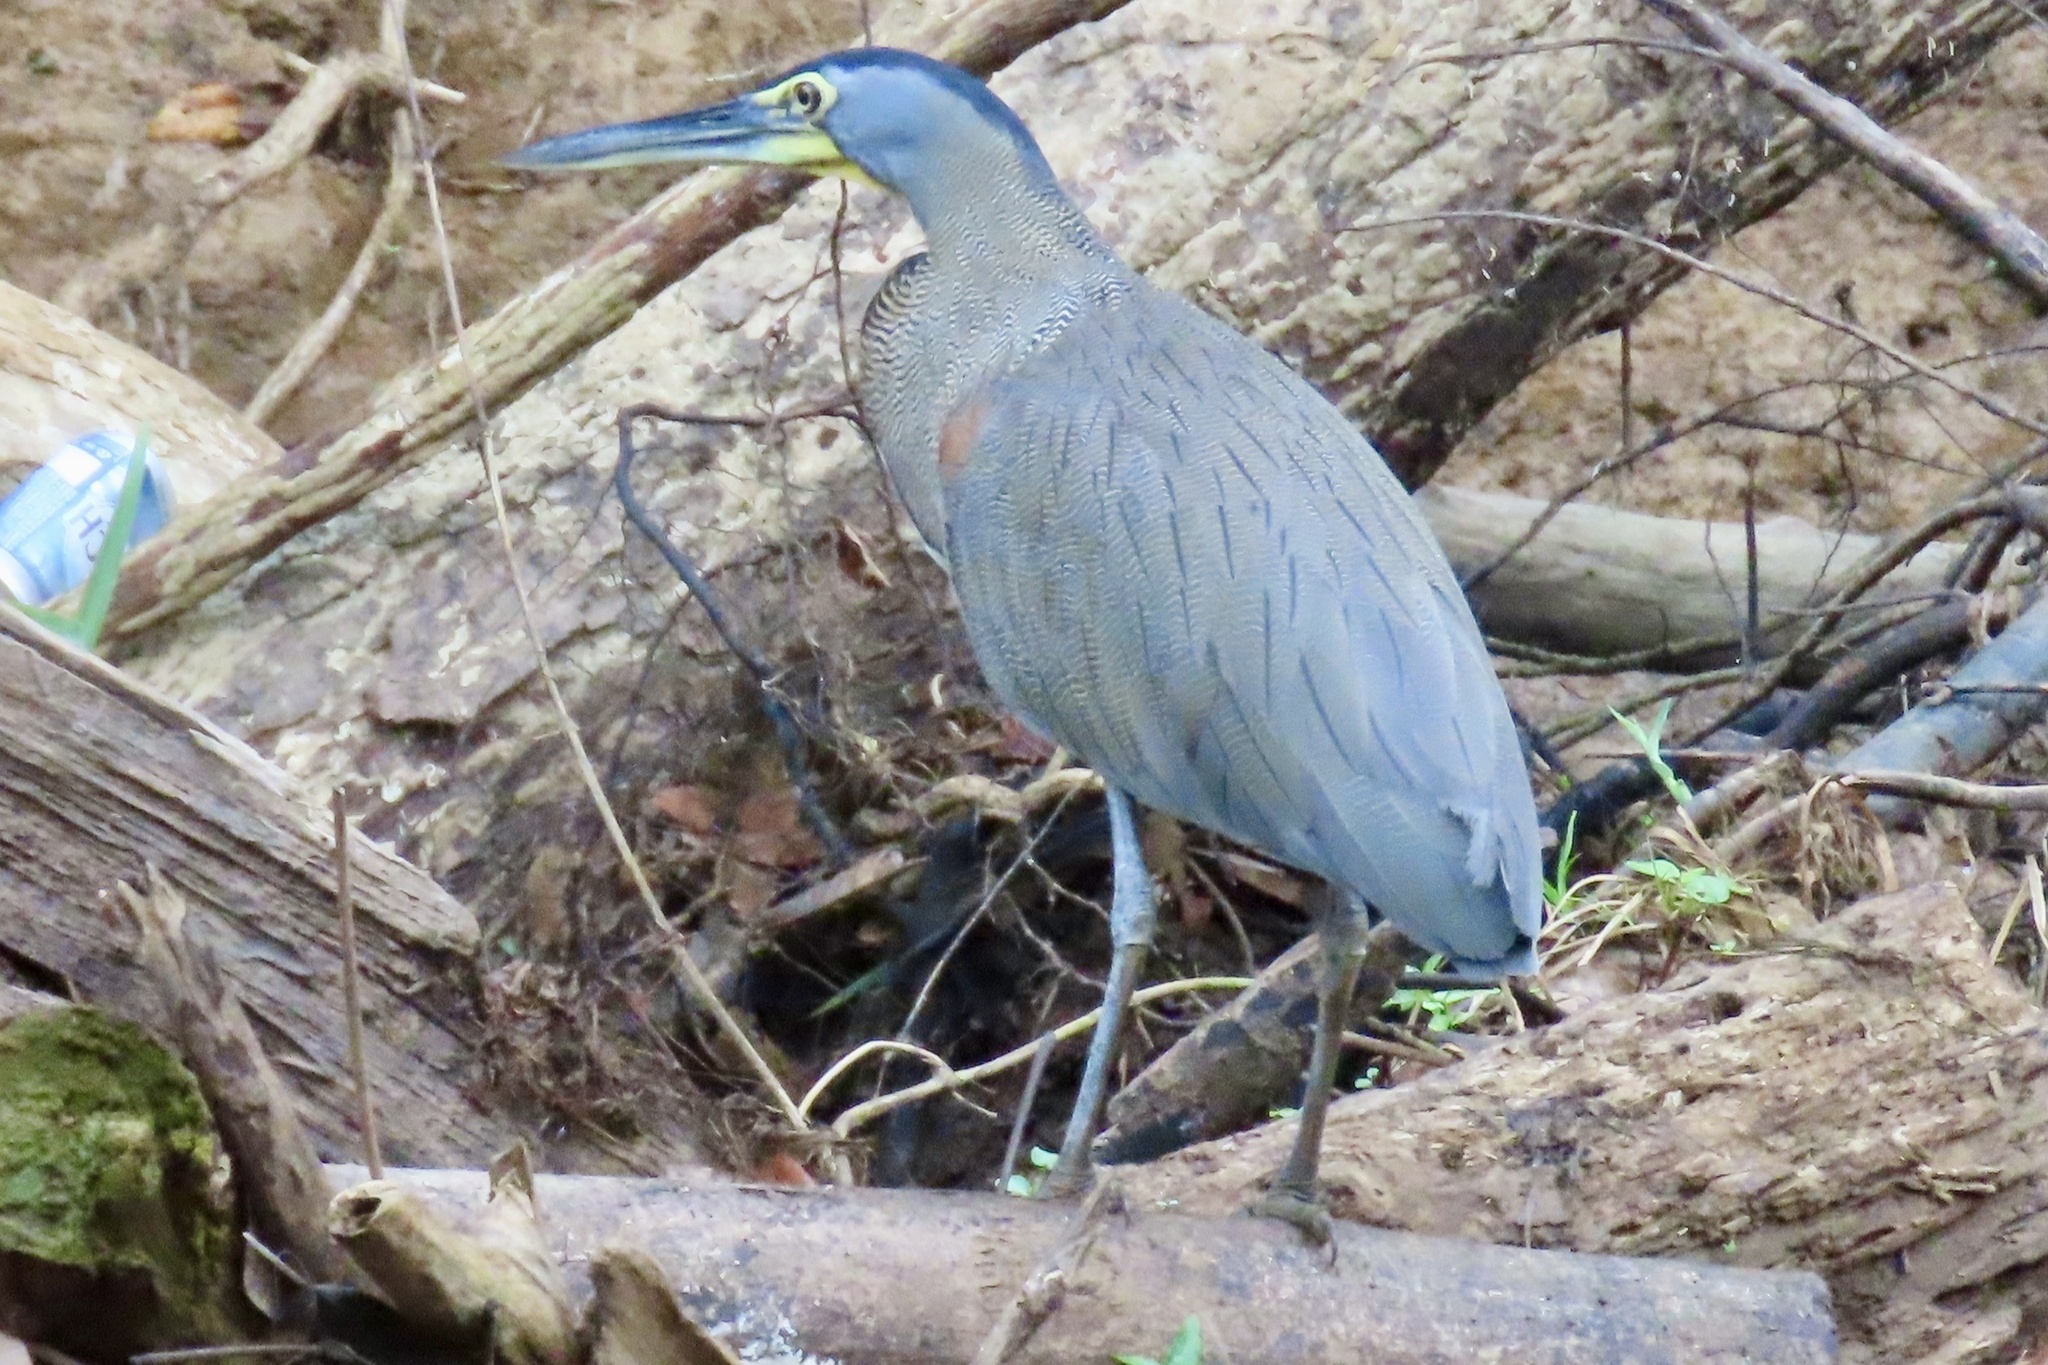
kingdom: Animalia
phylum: Chordata
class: Aves
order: Pelecaniformes
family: Ardeidae
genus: Tigrisoma
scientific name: Tigrisoma mexicanum
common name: Bare-throated tiger-heron
